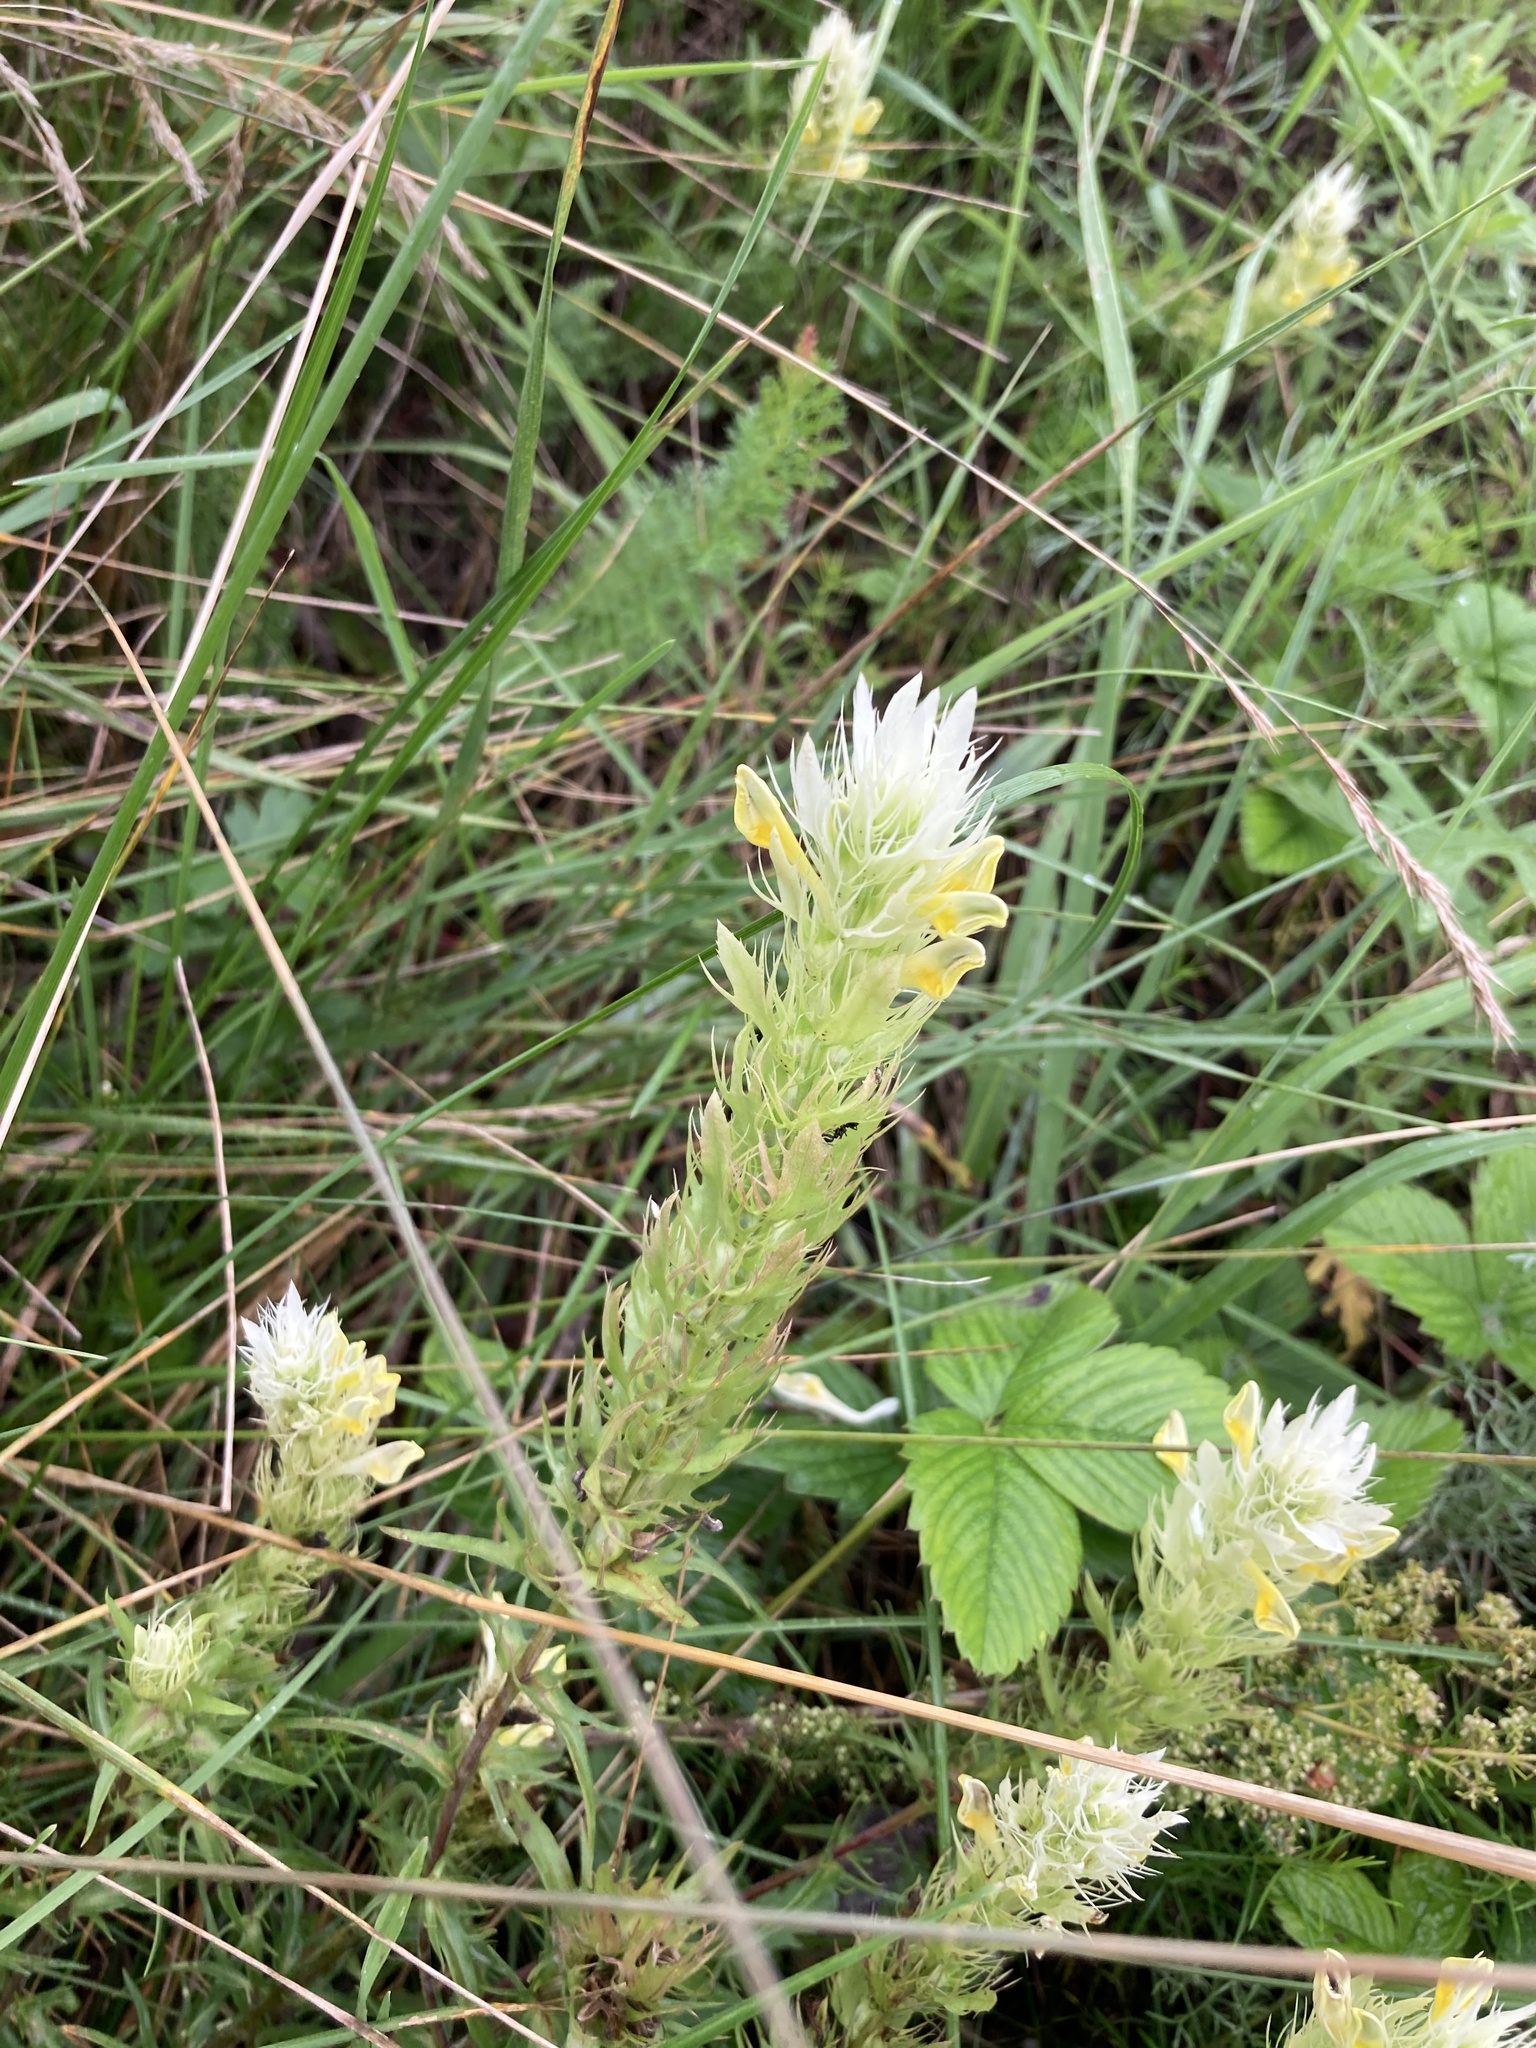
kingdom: Plantae
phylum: Tracheophyta
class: Magnoliopsida
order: Lamiales
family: Orobanchaceae
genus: Melampyrum
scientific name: Melampyrum arvense
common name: Field cow-wheat
